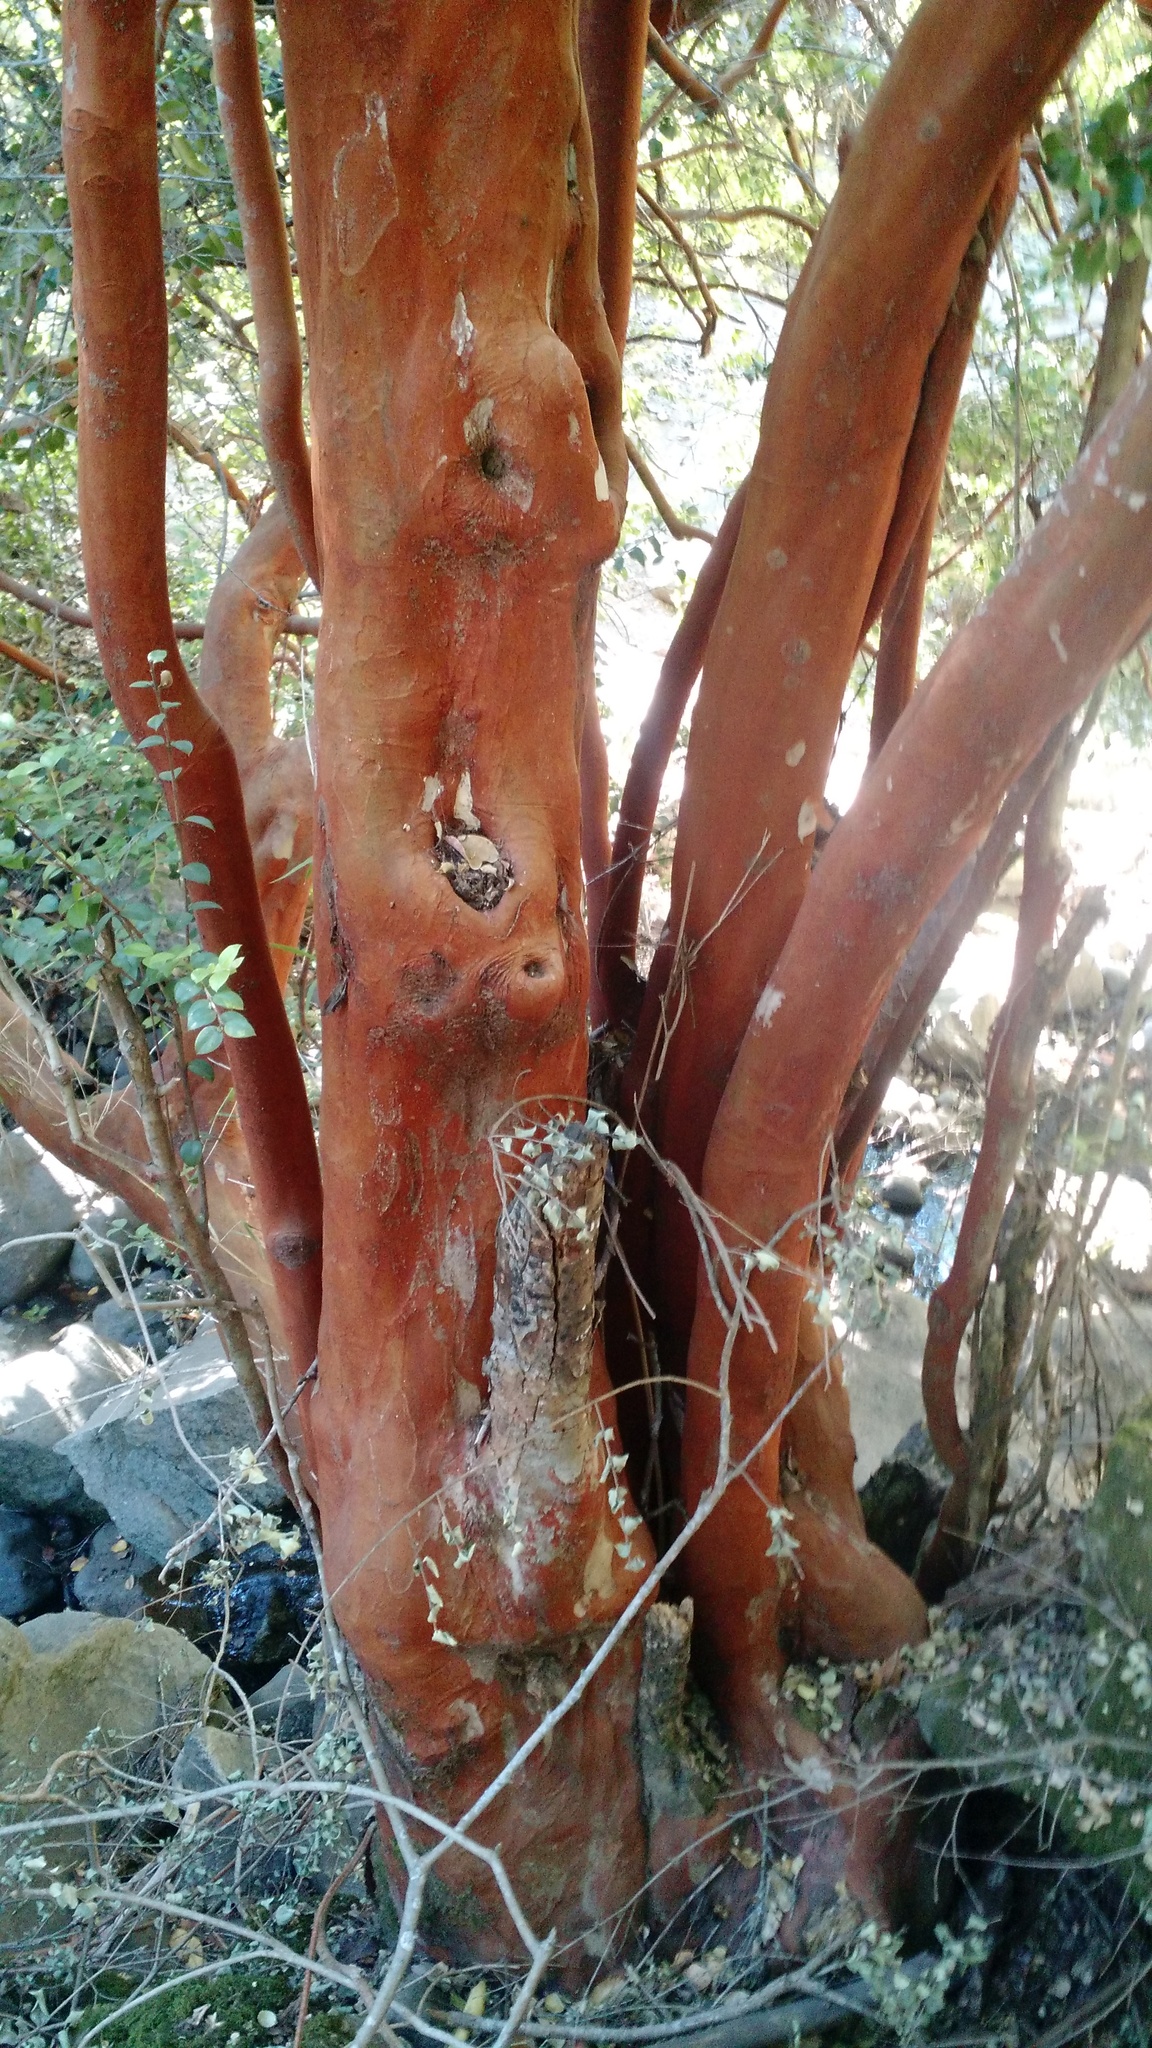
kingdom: Plantae
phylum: Tracheophyta
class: Magnoliopsida
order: Myrtales
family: Myrtaceae
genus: Luma
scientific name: Luma apiculata
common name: Chilean myrtle
